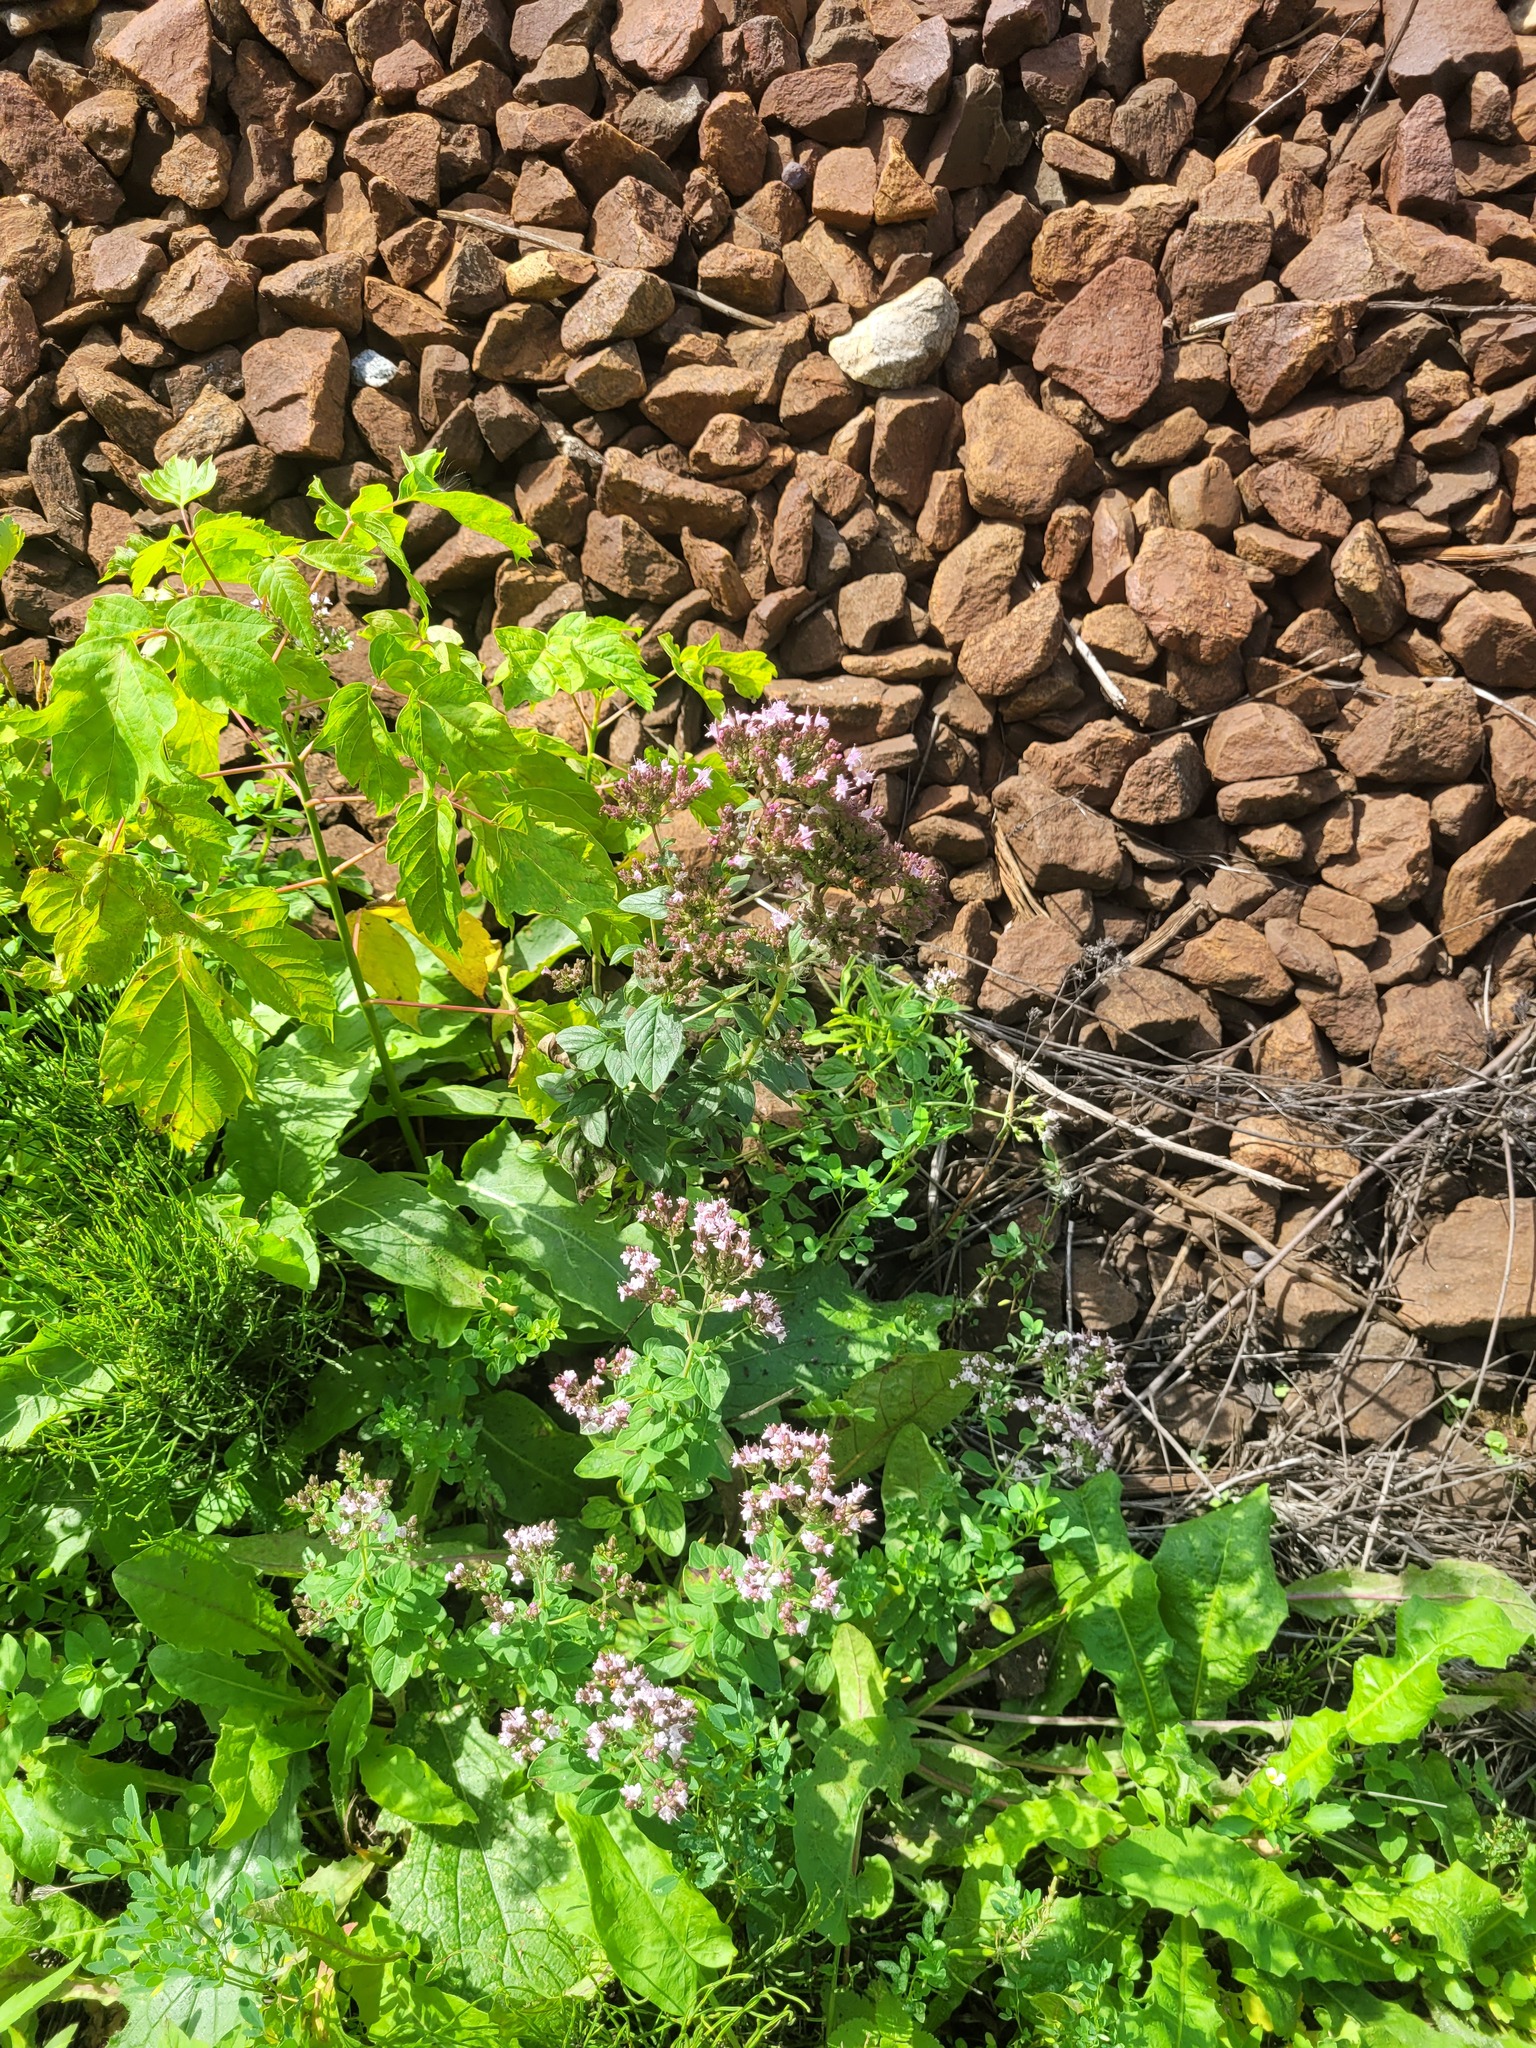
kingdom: Plantae
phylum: Tracheophyta
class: Magnoliopsida
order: Lamiales
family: Lamiaceae
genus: Origanum
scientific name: Origanum vulgare
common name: Wild marjoram
